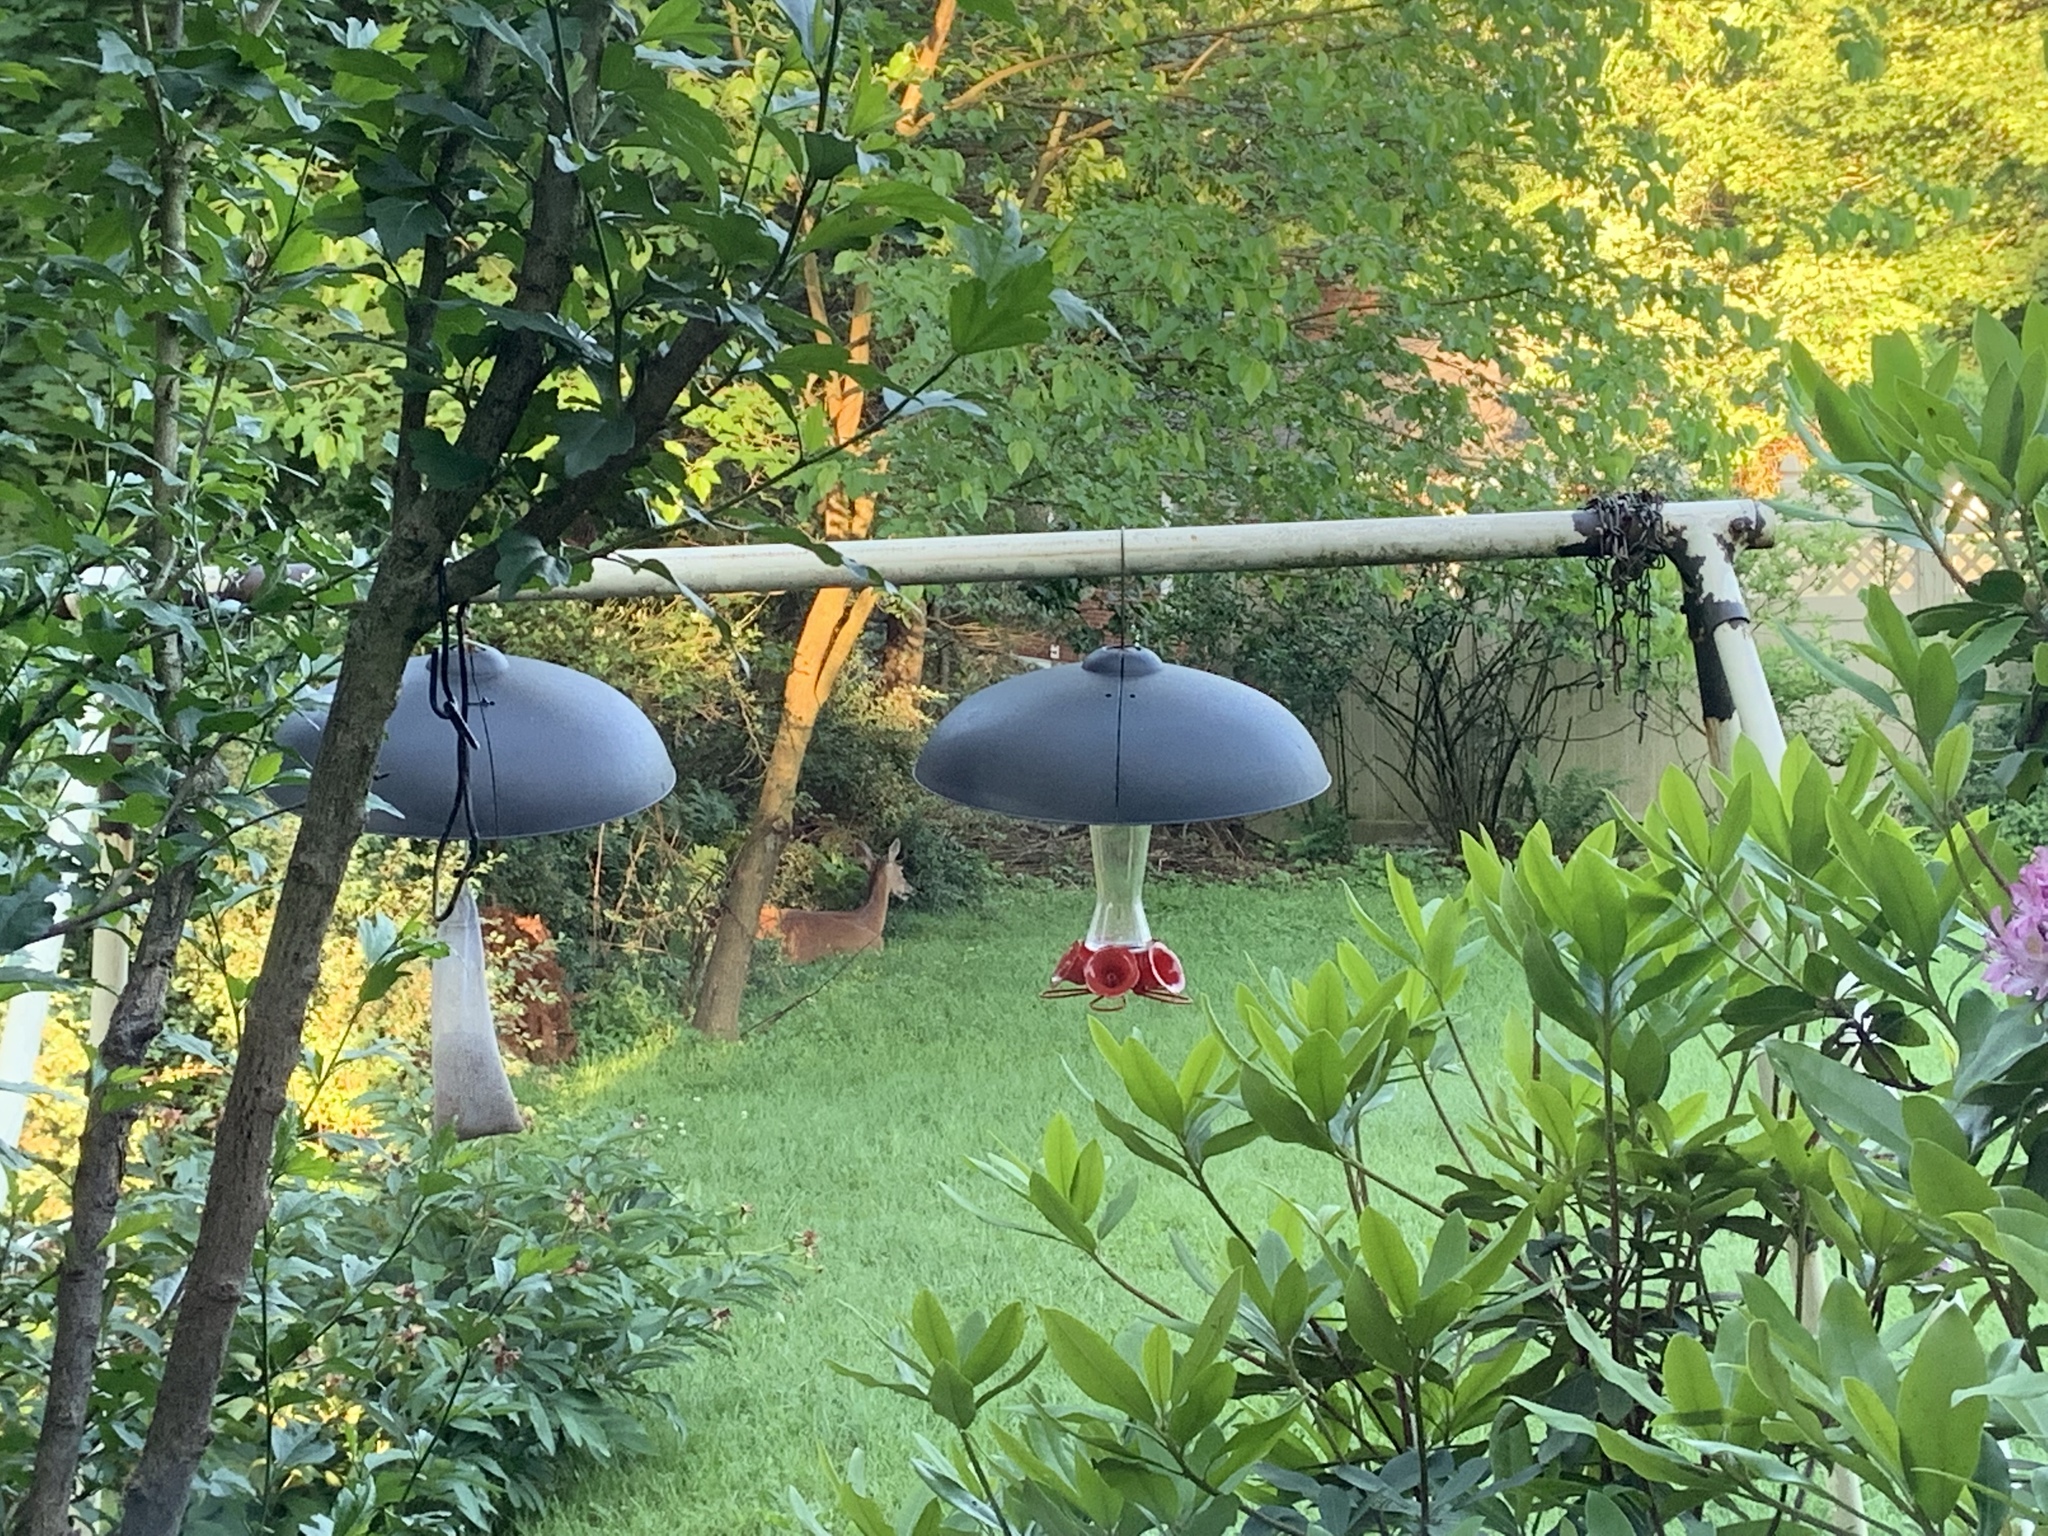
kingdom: Animalia
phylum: Chordata
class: Mammalia
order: Artiodactyla
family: Cervidae
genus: Odocoileus
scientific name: Odocoileus virginianus
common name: White-tailed deer
